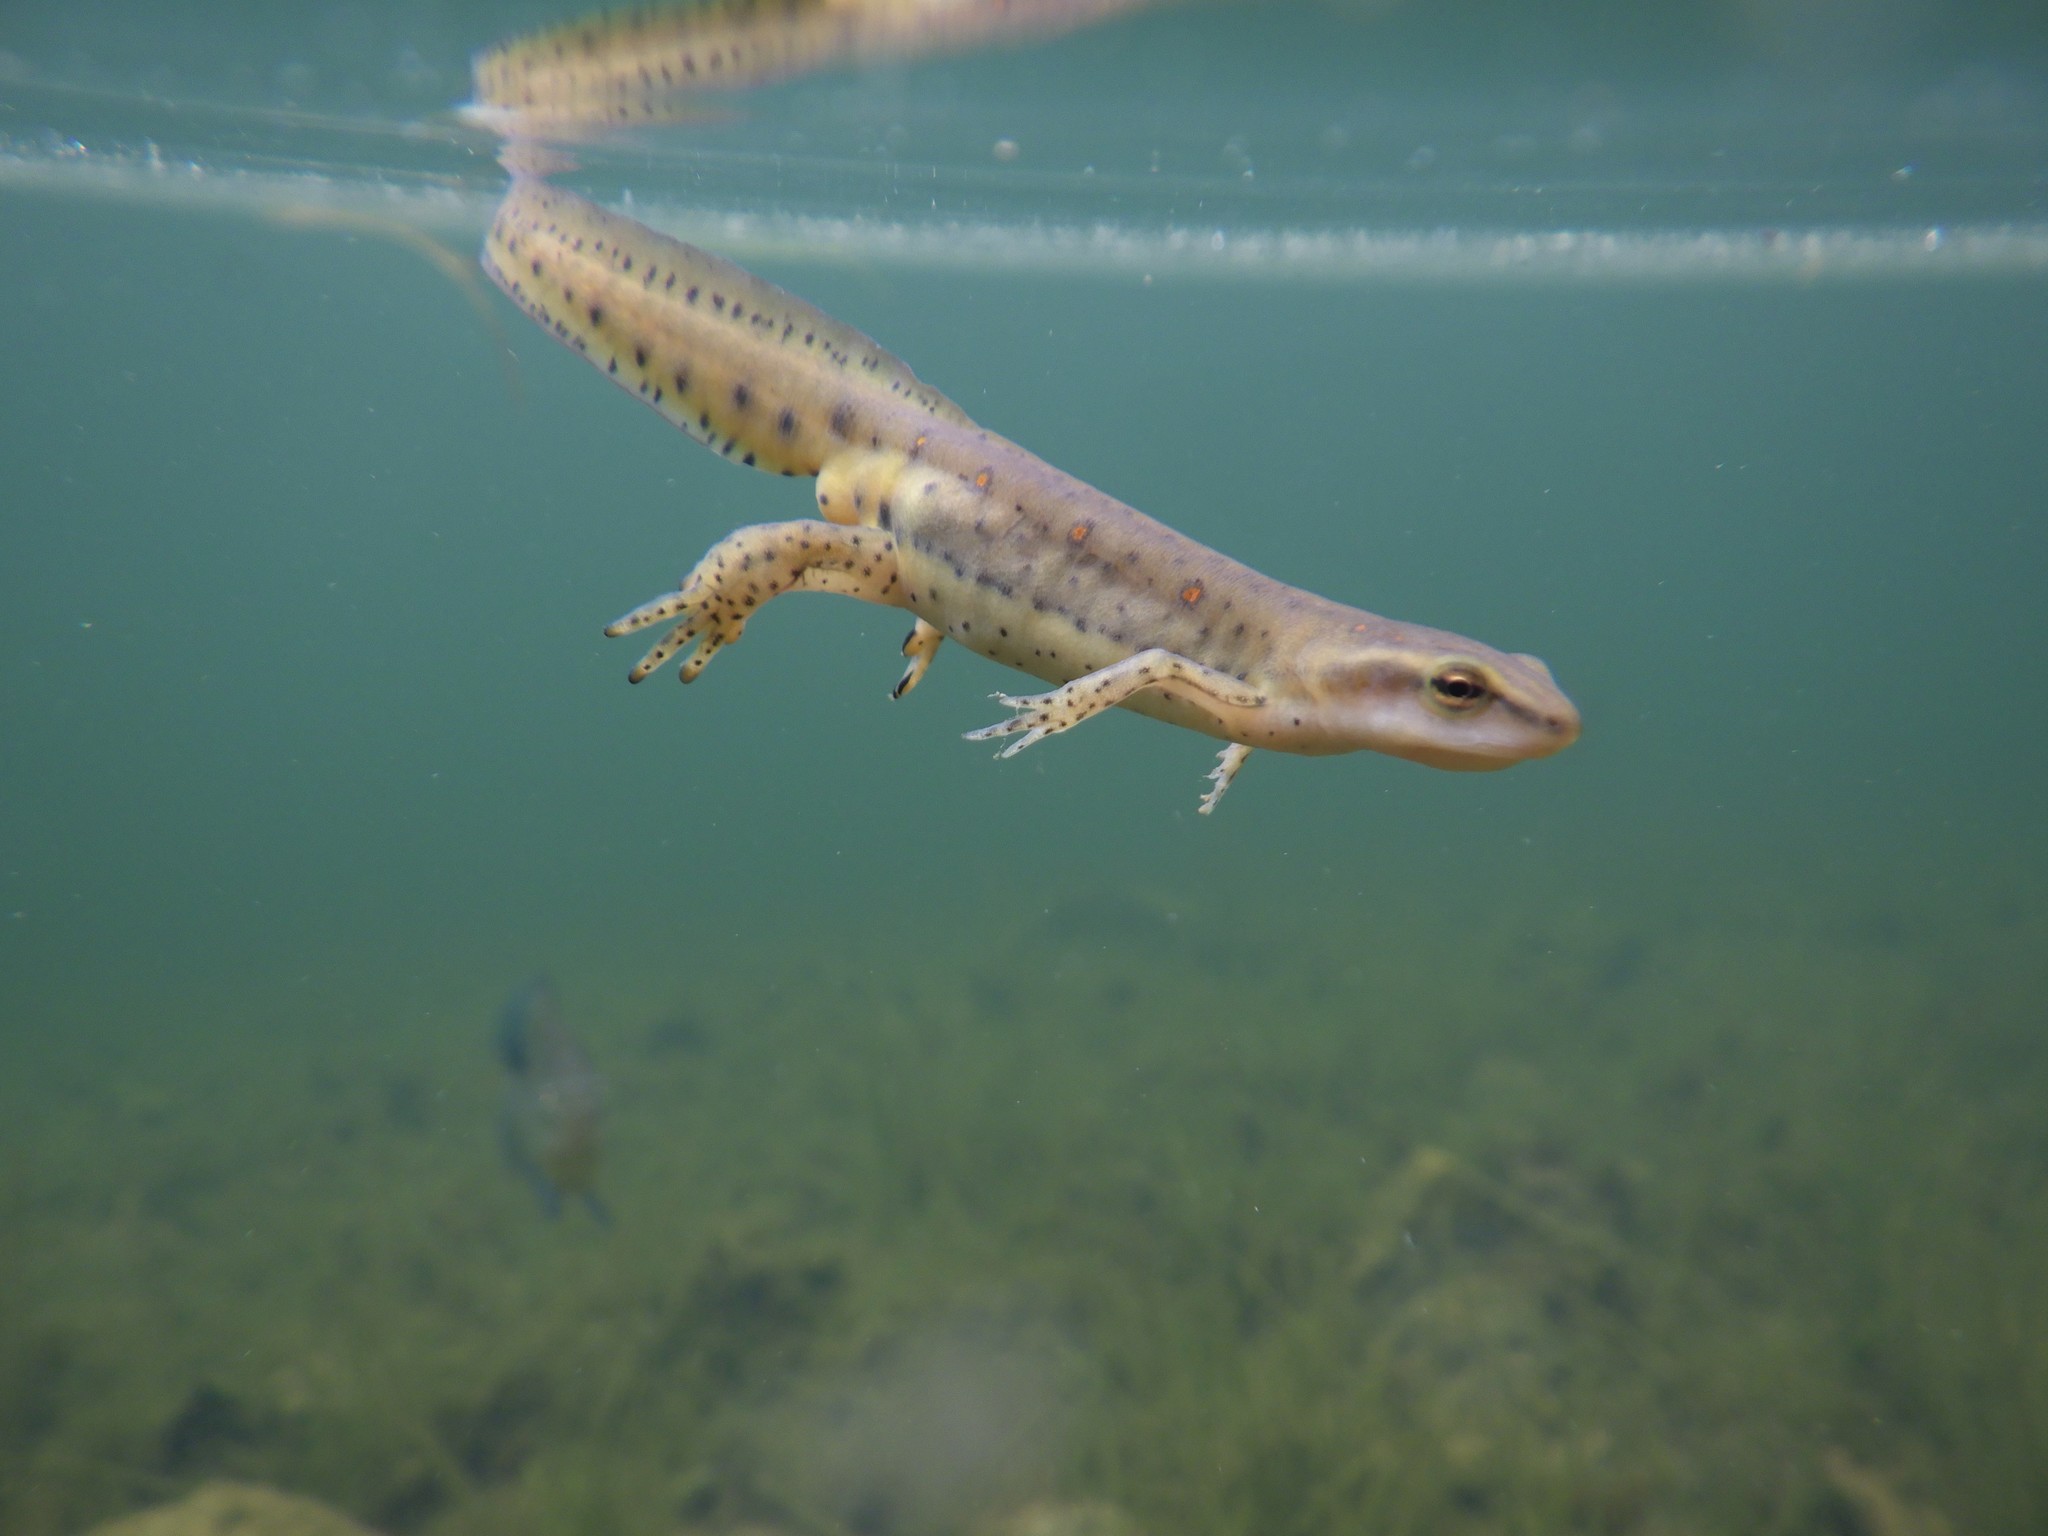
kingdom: Animalia
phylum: Chordata
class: Amphibia
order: Caudata
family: Salamandridae
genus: Notophthalmus
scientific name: Notophthalmus viridescens
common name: Eastern newt
